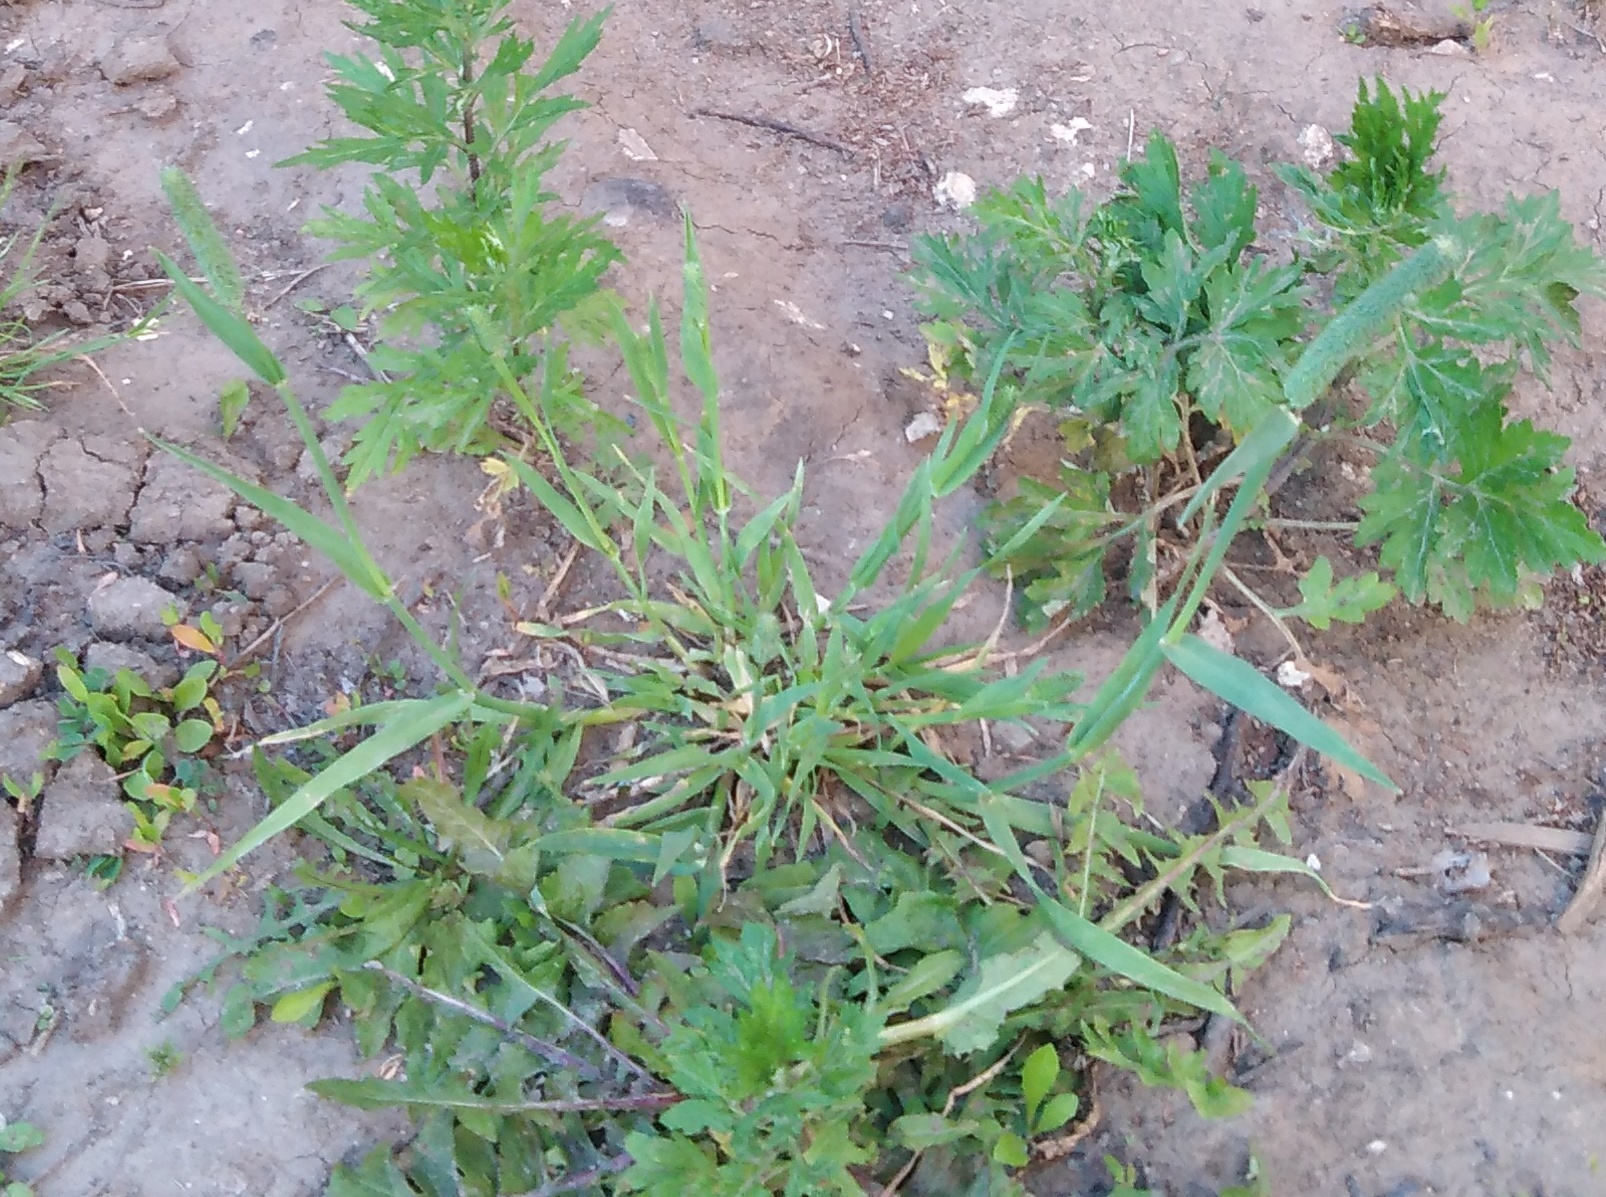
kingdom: Plantae
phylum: Tracheophyta
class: Liliopsida
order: Poales
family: Poaceae
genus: Phleum
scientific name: Phleum pratense
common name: Timothy grass
